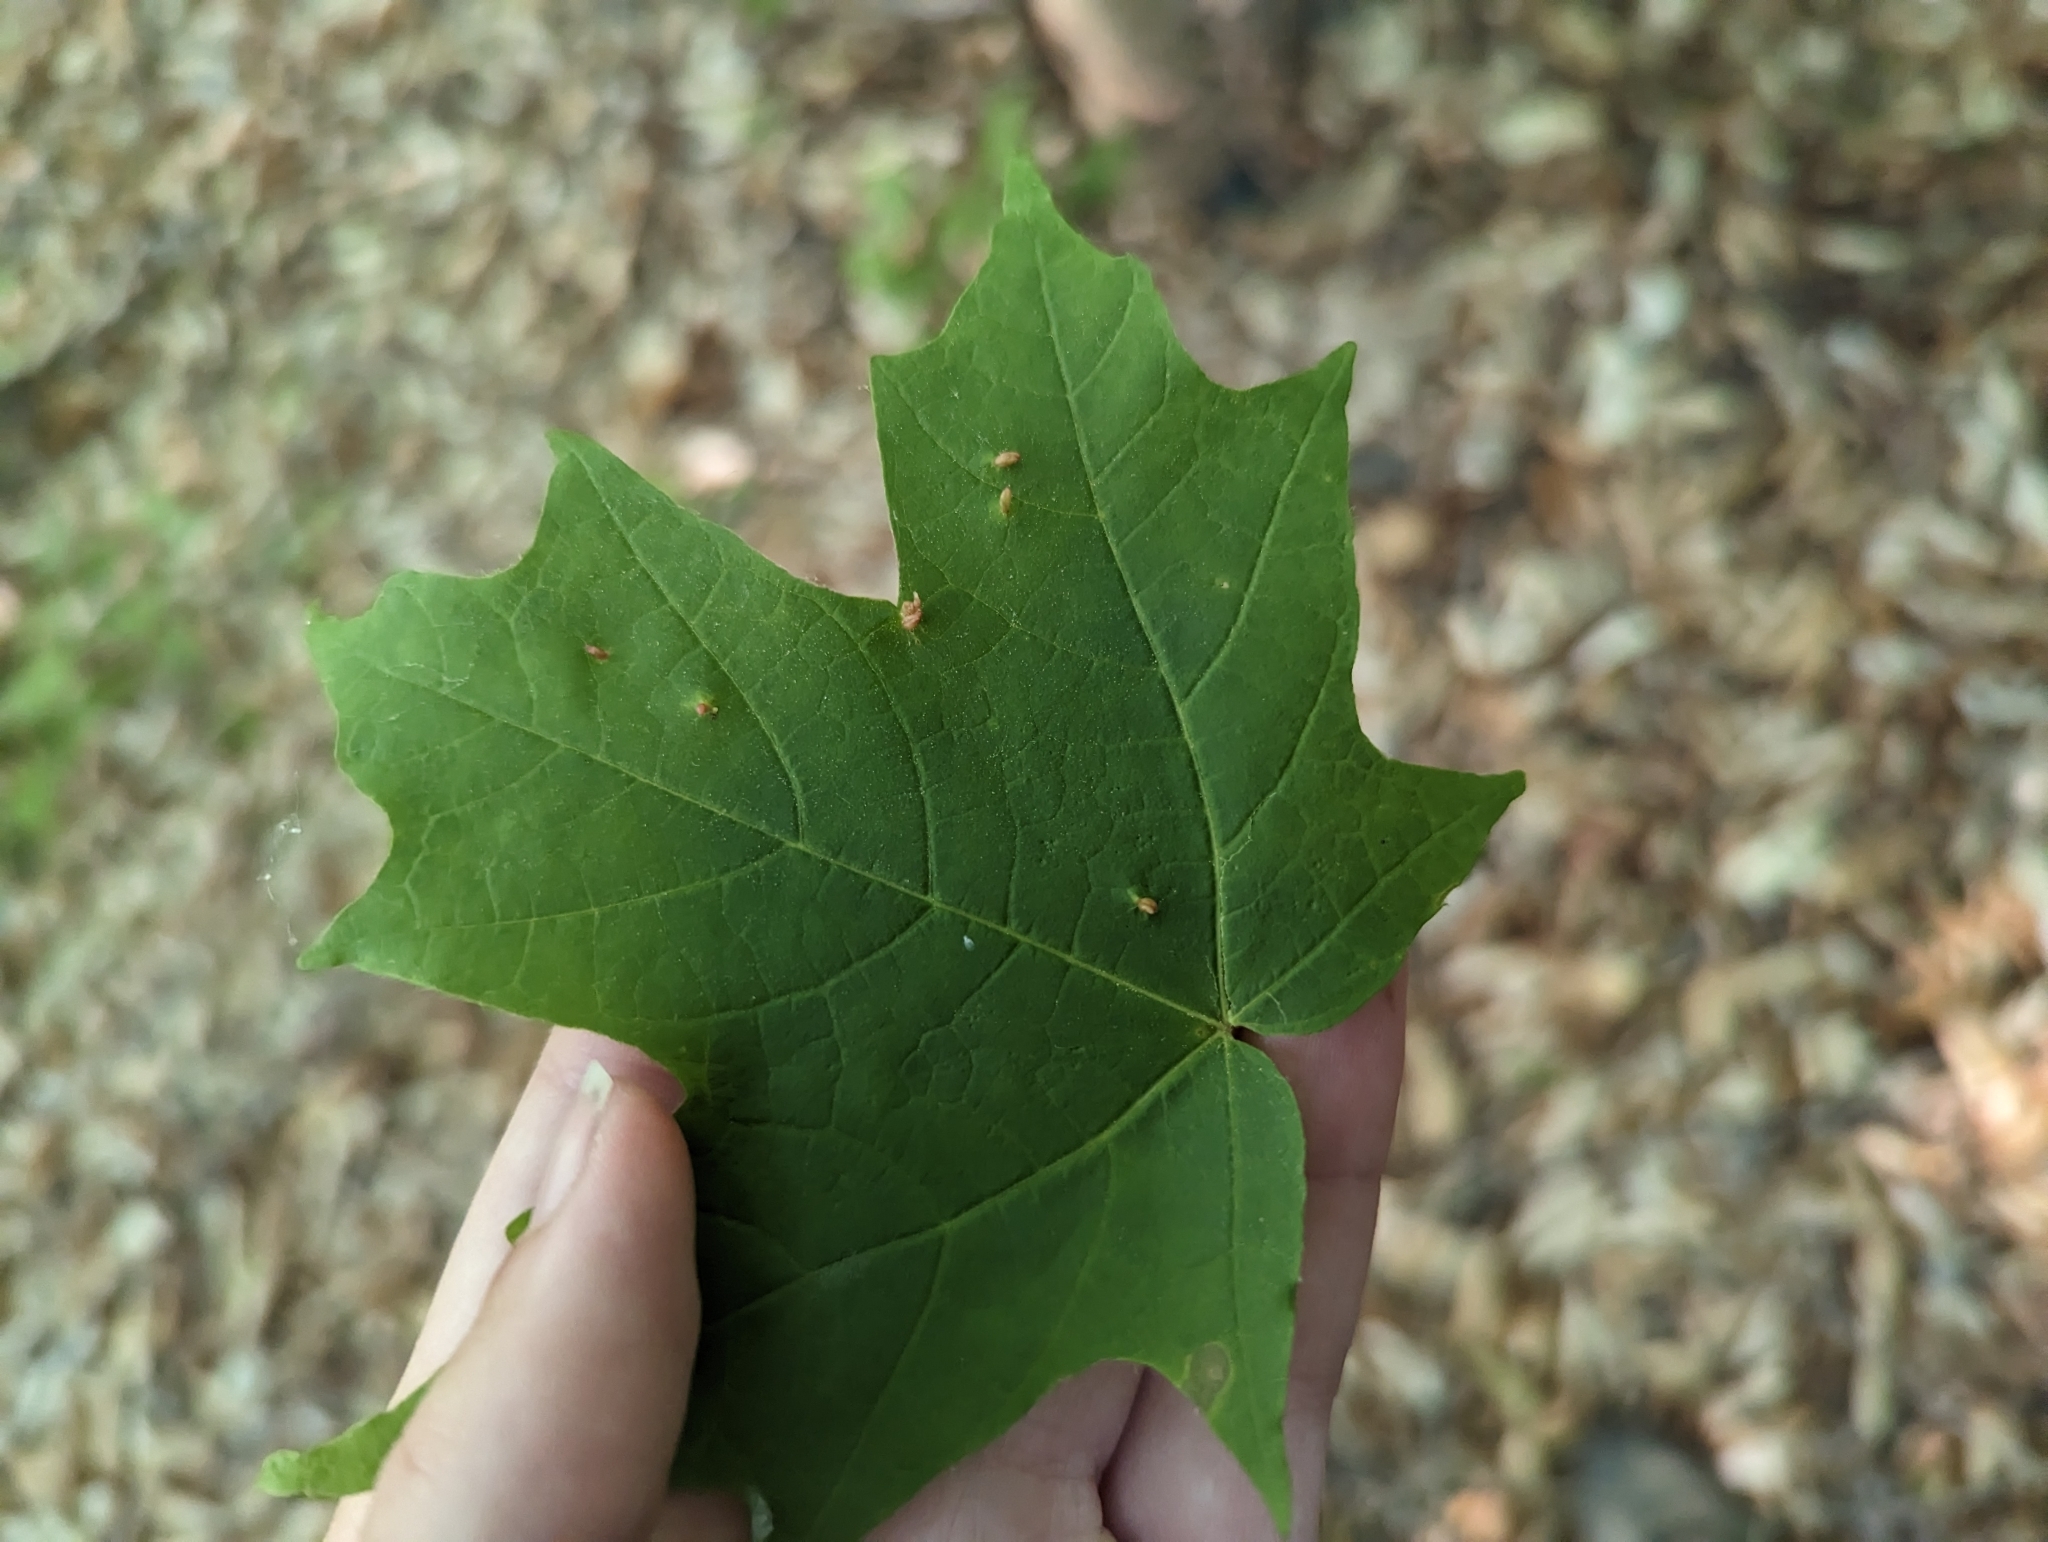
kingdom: Plantae
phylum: Tracheophyta
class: Magnoliopsida
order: Sapindales
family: Sapindaceae
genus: Acer
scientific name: Acer saccharum
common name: Sugar maple
